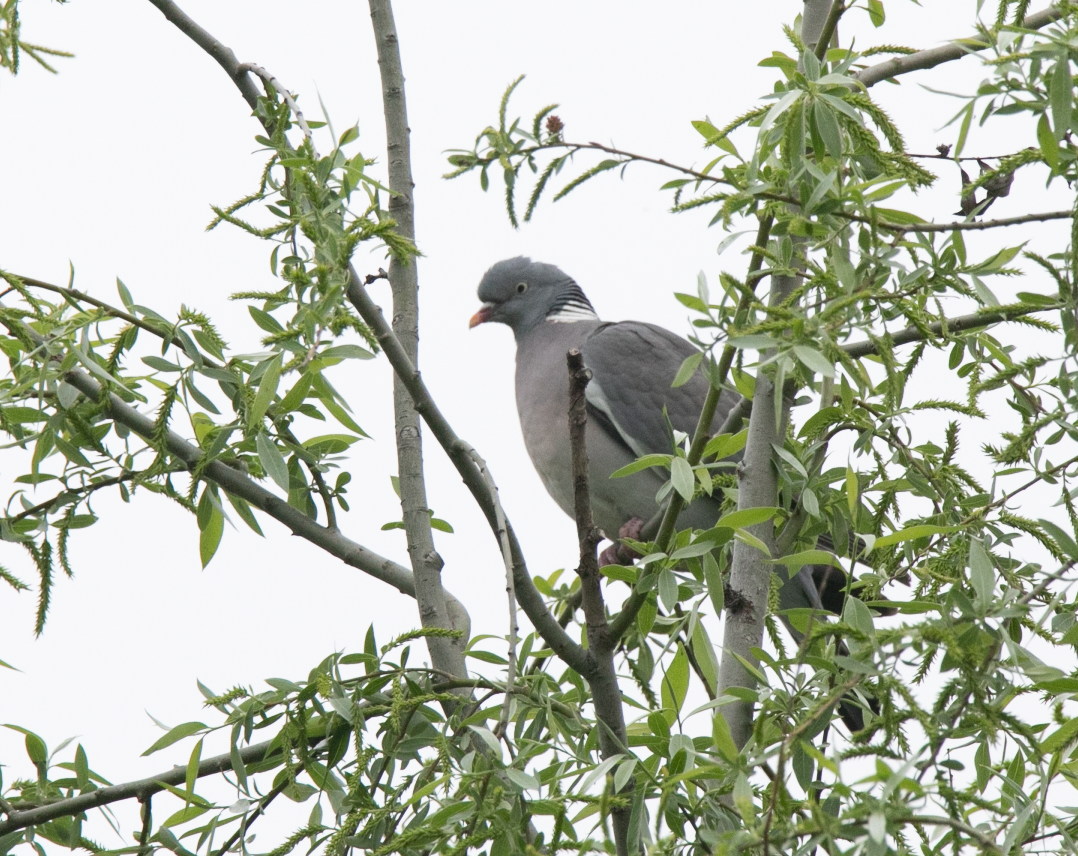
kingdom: Animalia
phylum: Chordata
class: Aves
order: Columbiformes
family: Columbidae
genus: Columba
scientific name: Columba palumbus
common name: Common wood pigeon
